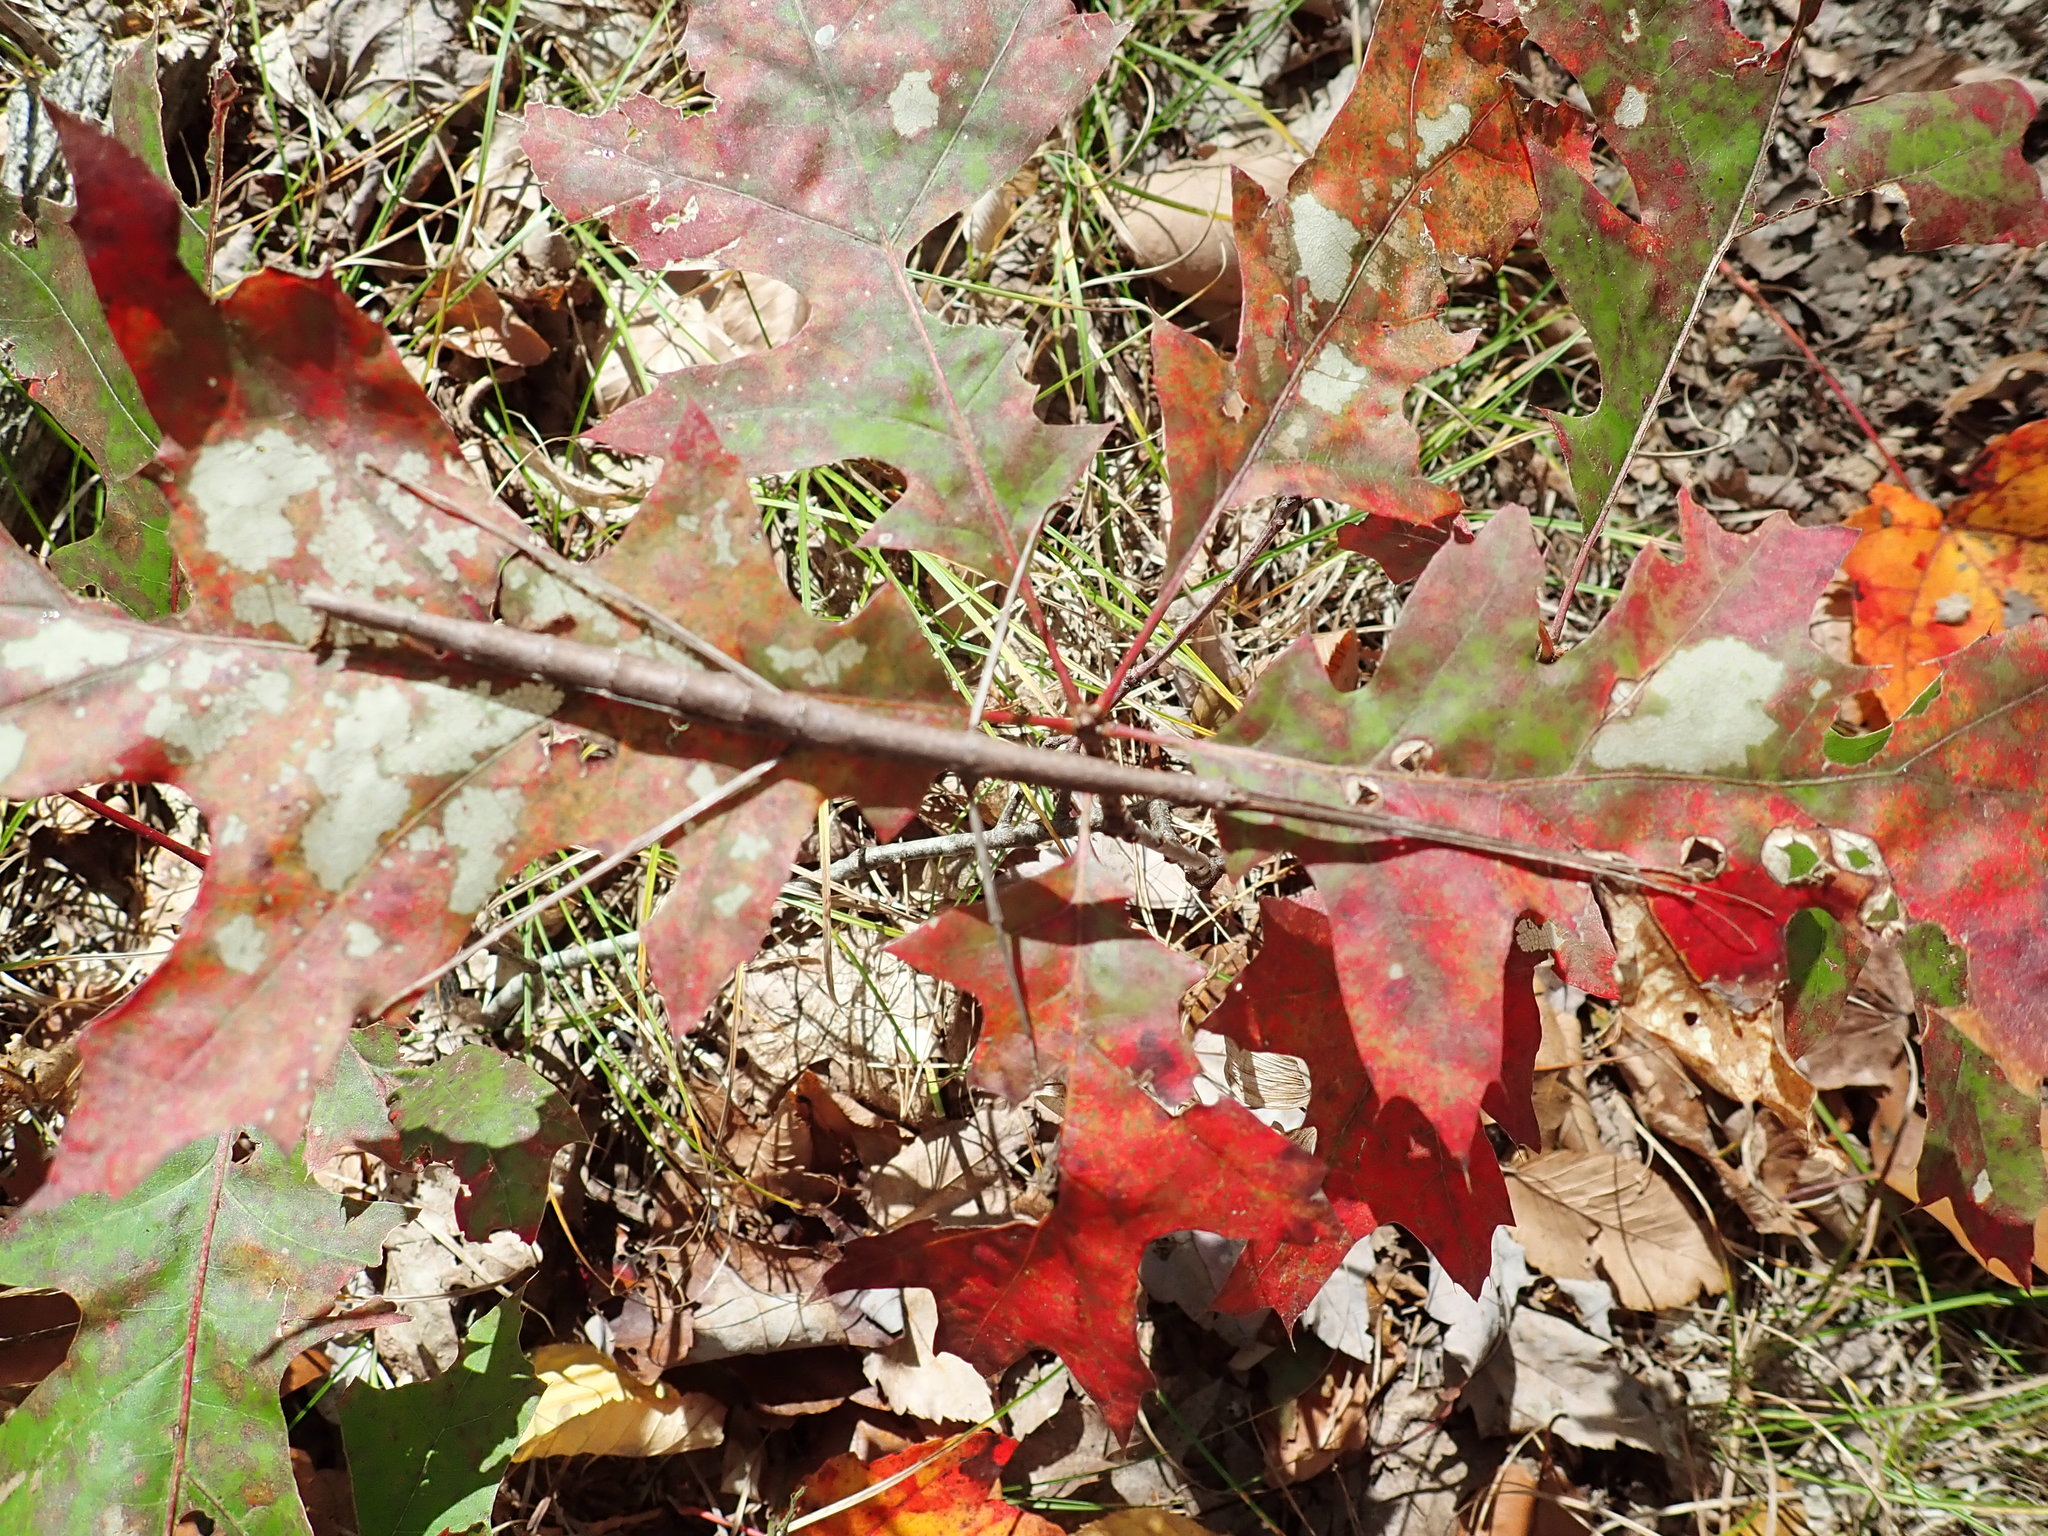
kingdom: Animalia
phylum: Arthropoda
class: Insecta
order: Phasmida
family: Diapheromeridae
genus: Diapheromera
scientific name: Diapheromera femorata
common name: Common american walkingstick
